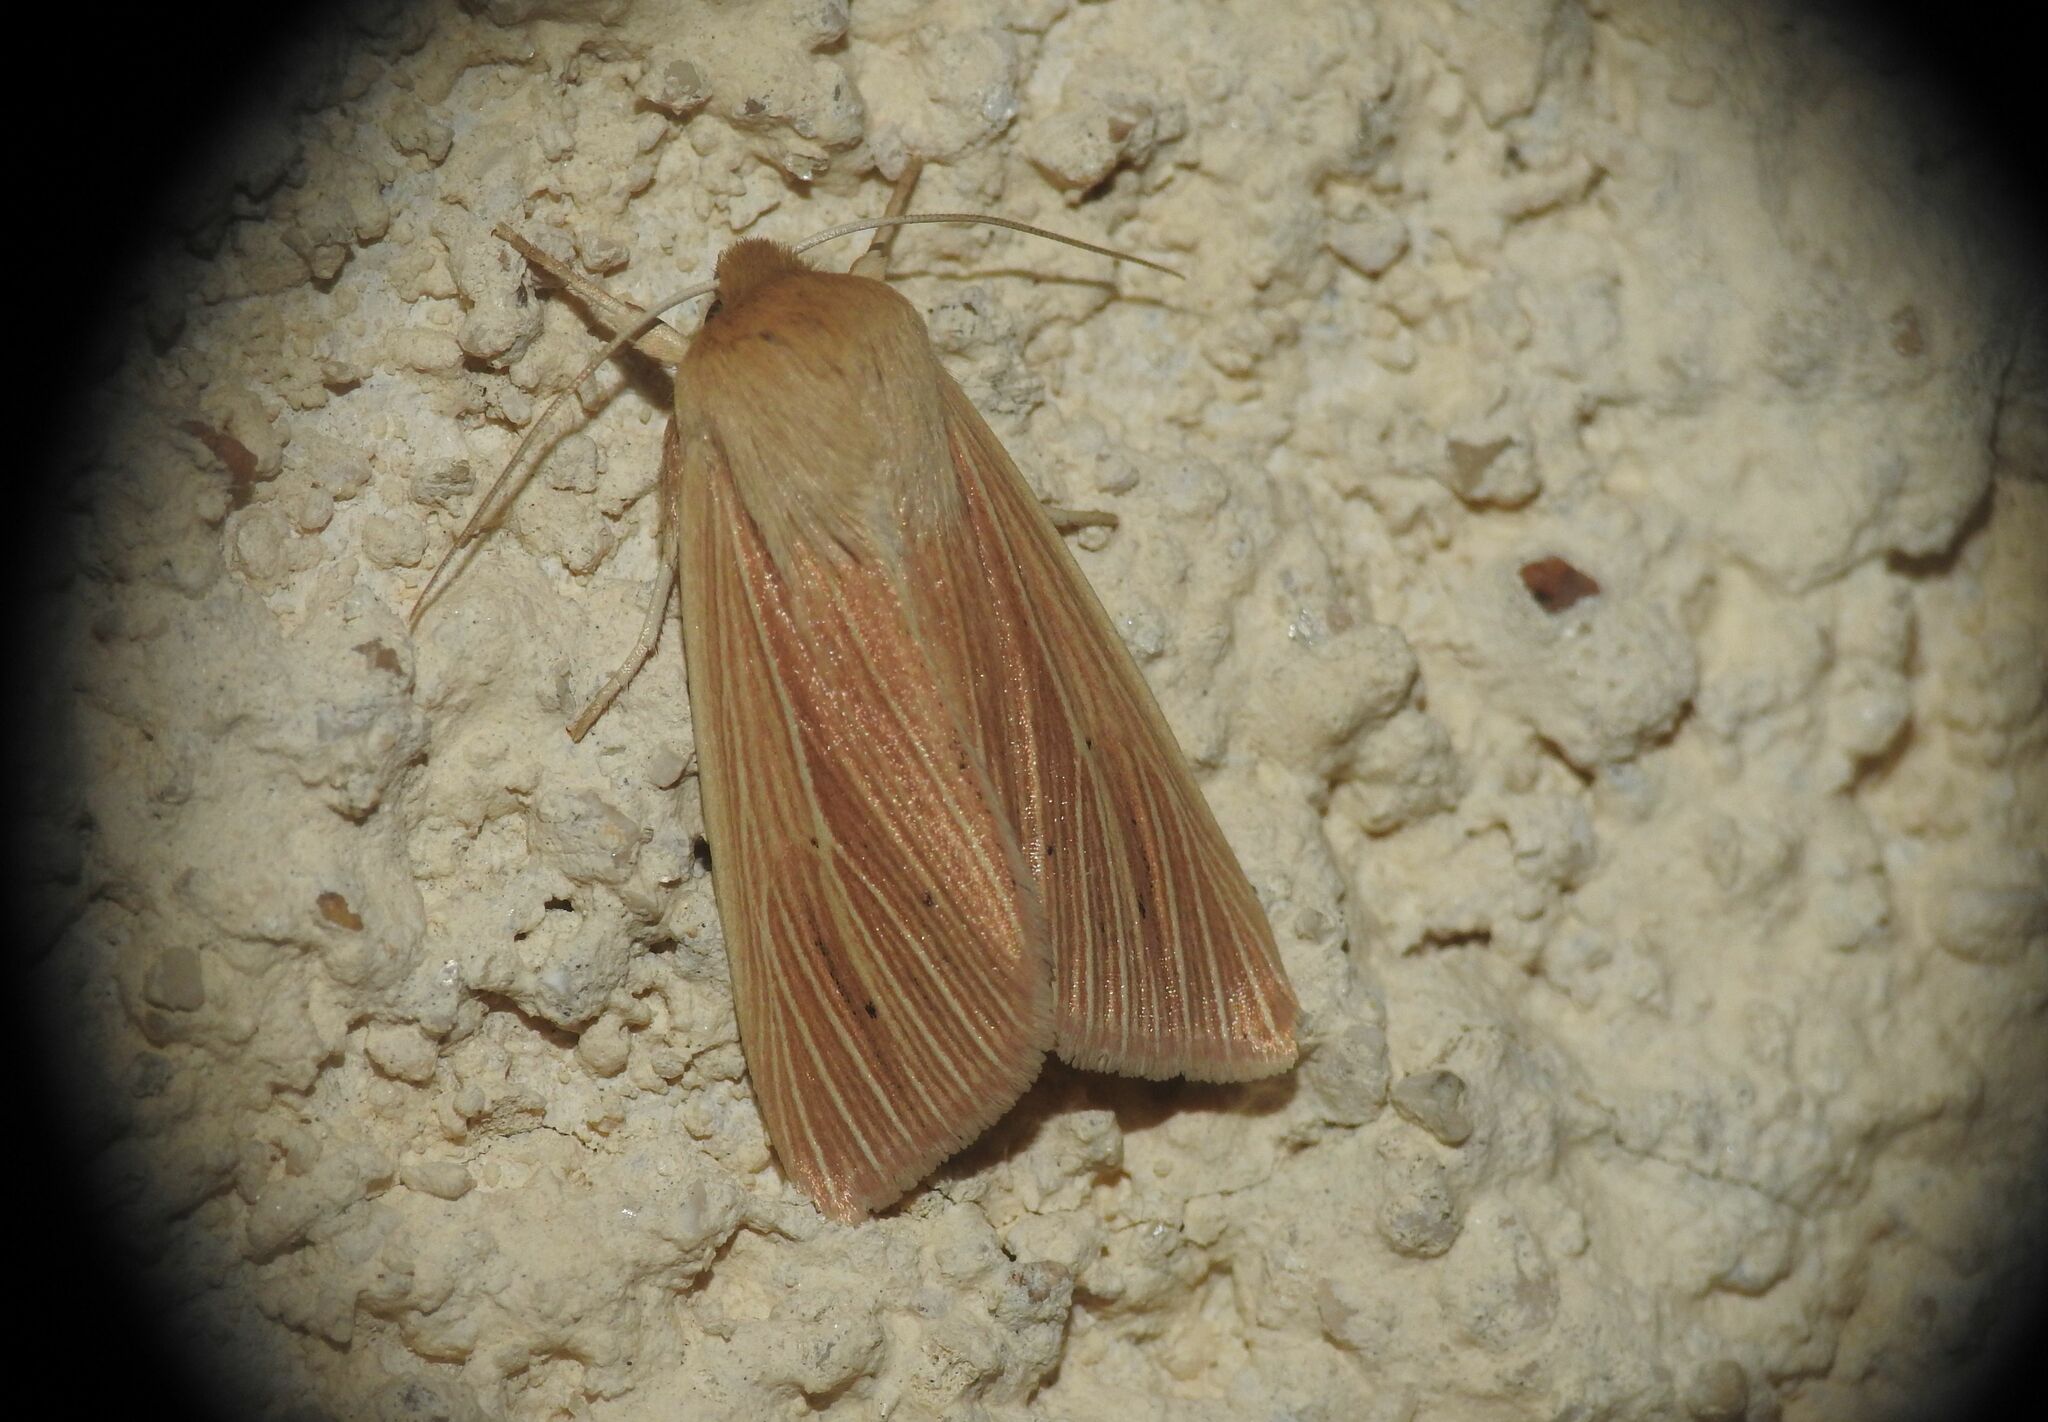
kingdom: Animalia
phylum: Arthropoda
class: Insecta
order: Lepidoptera
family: Noctuidae
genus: Mythimna
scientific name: Mythimna pallens
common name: Common wainscot
